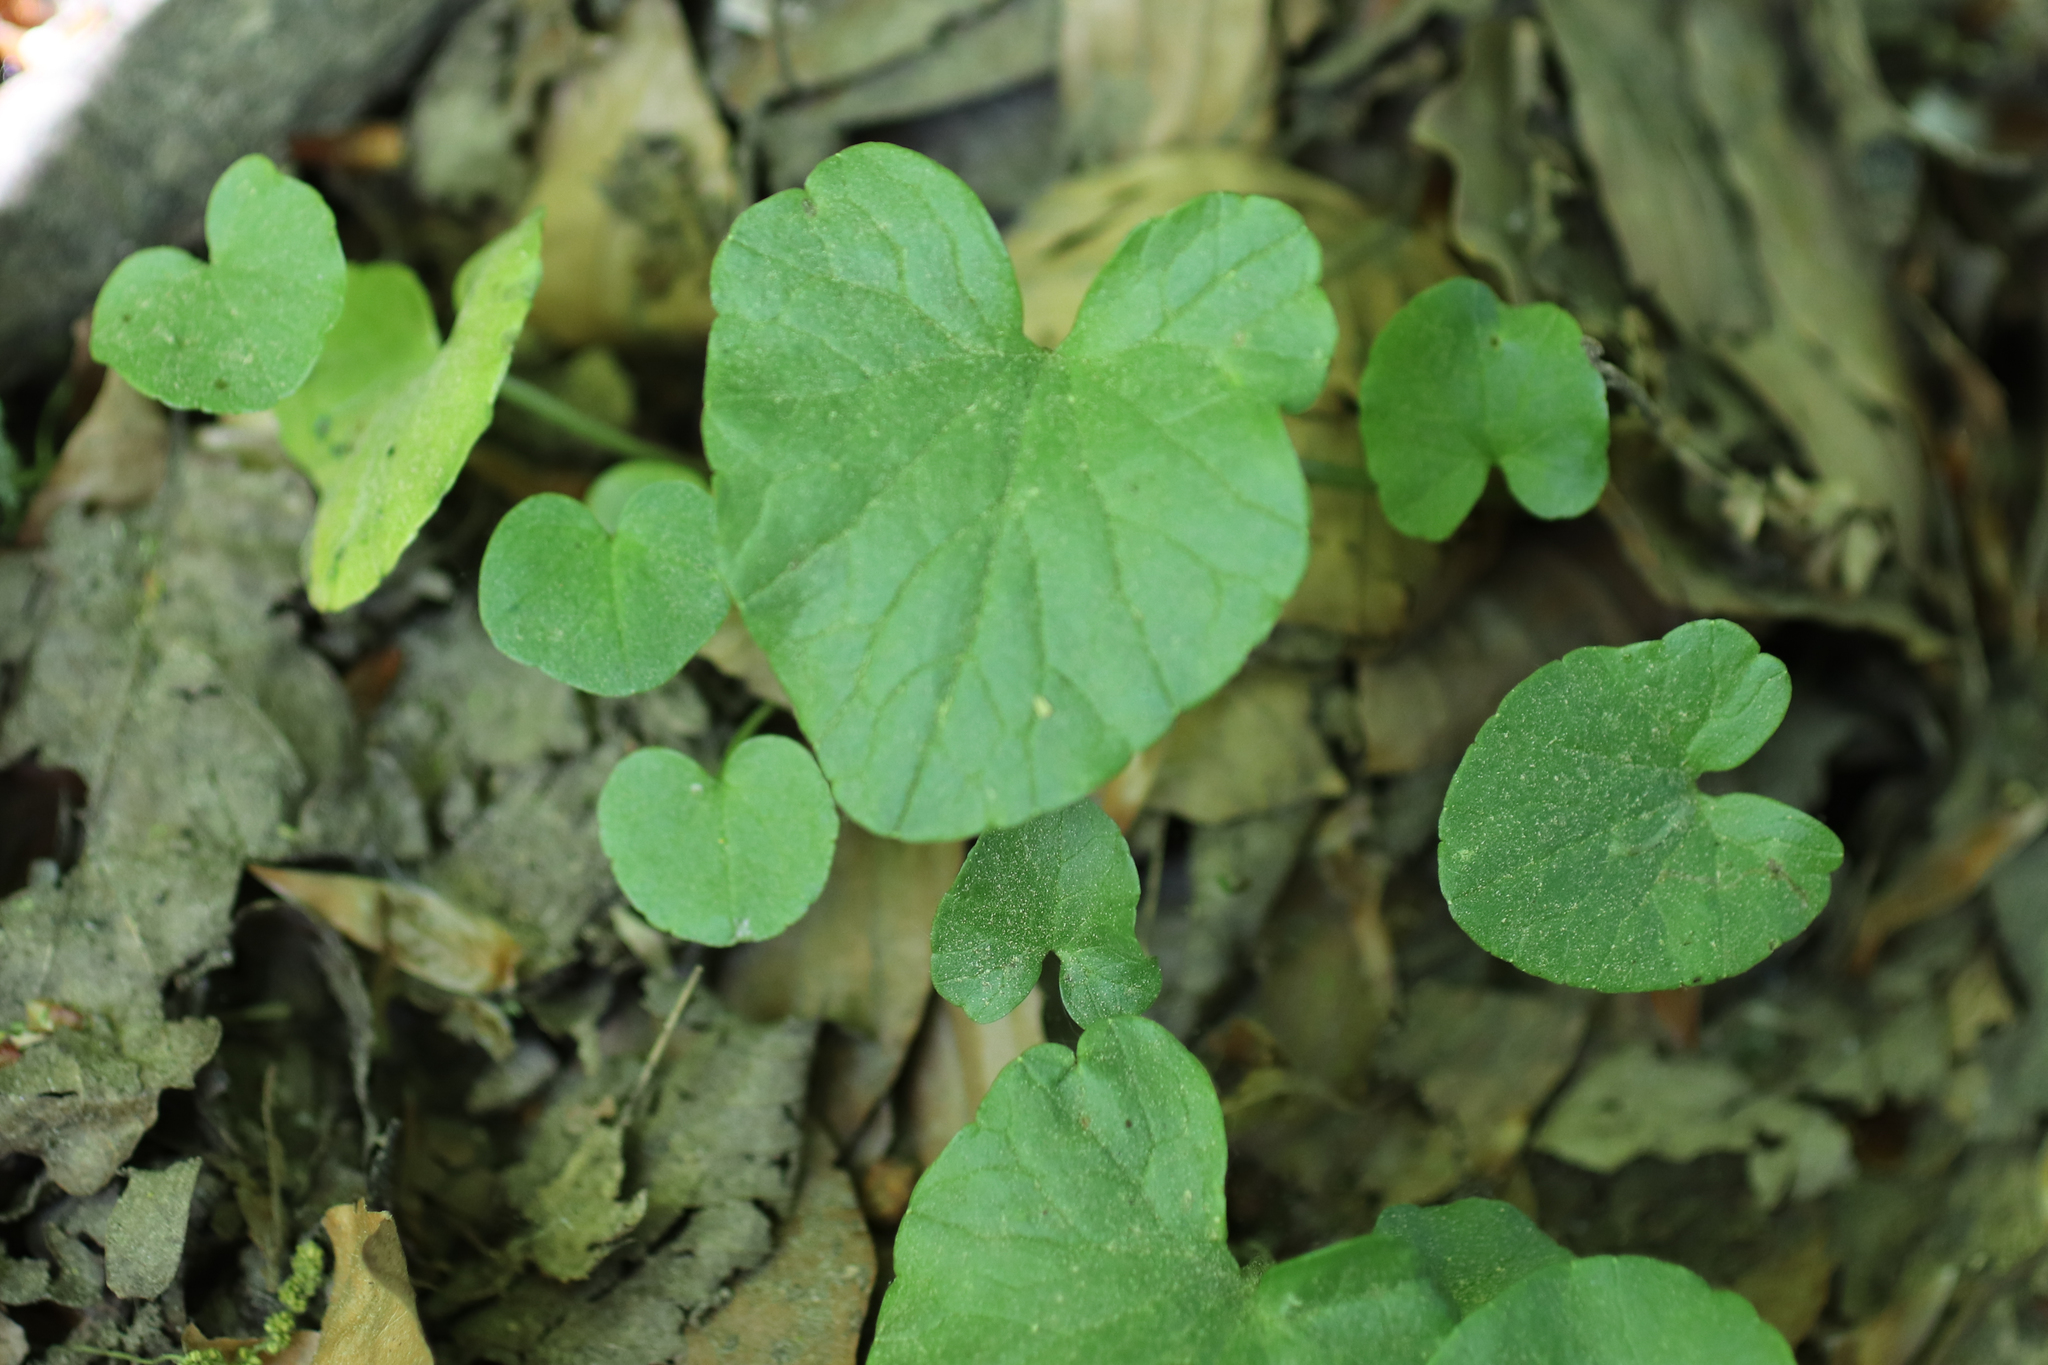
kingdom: Plantae
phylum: Tracheophyta
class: Magnoliopsida
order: Ranunculales
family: Ranunculaceae
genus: Ficaria
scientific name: Ficaria verna
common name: Lesser celandine
